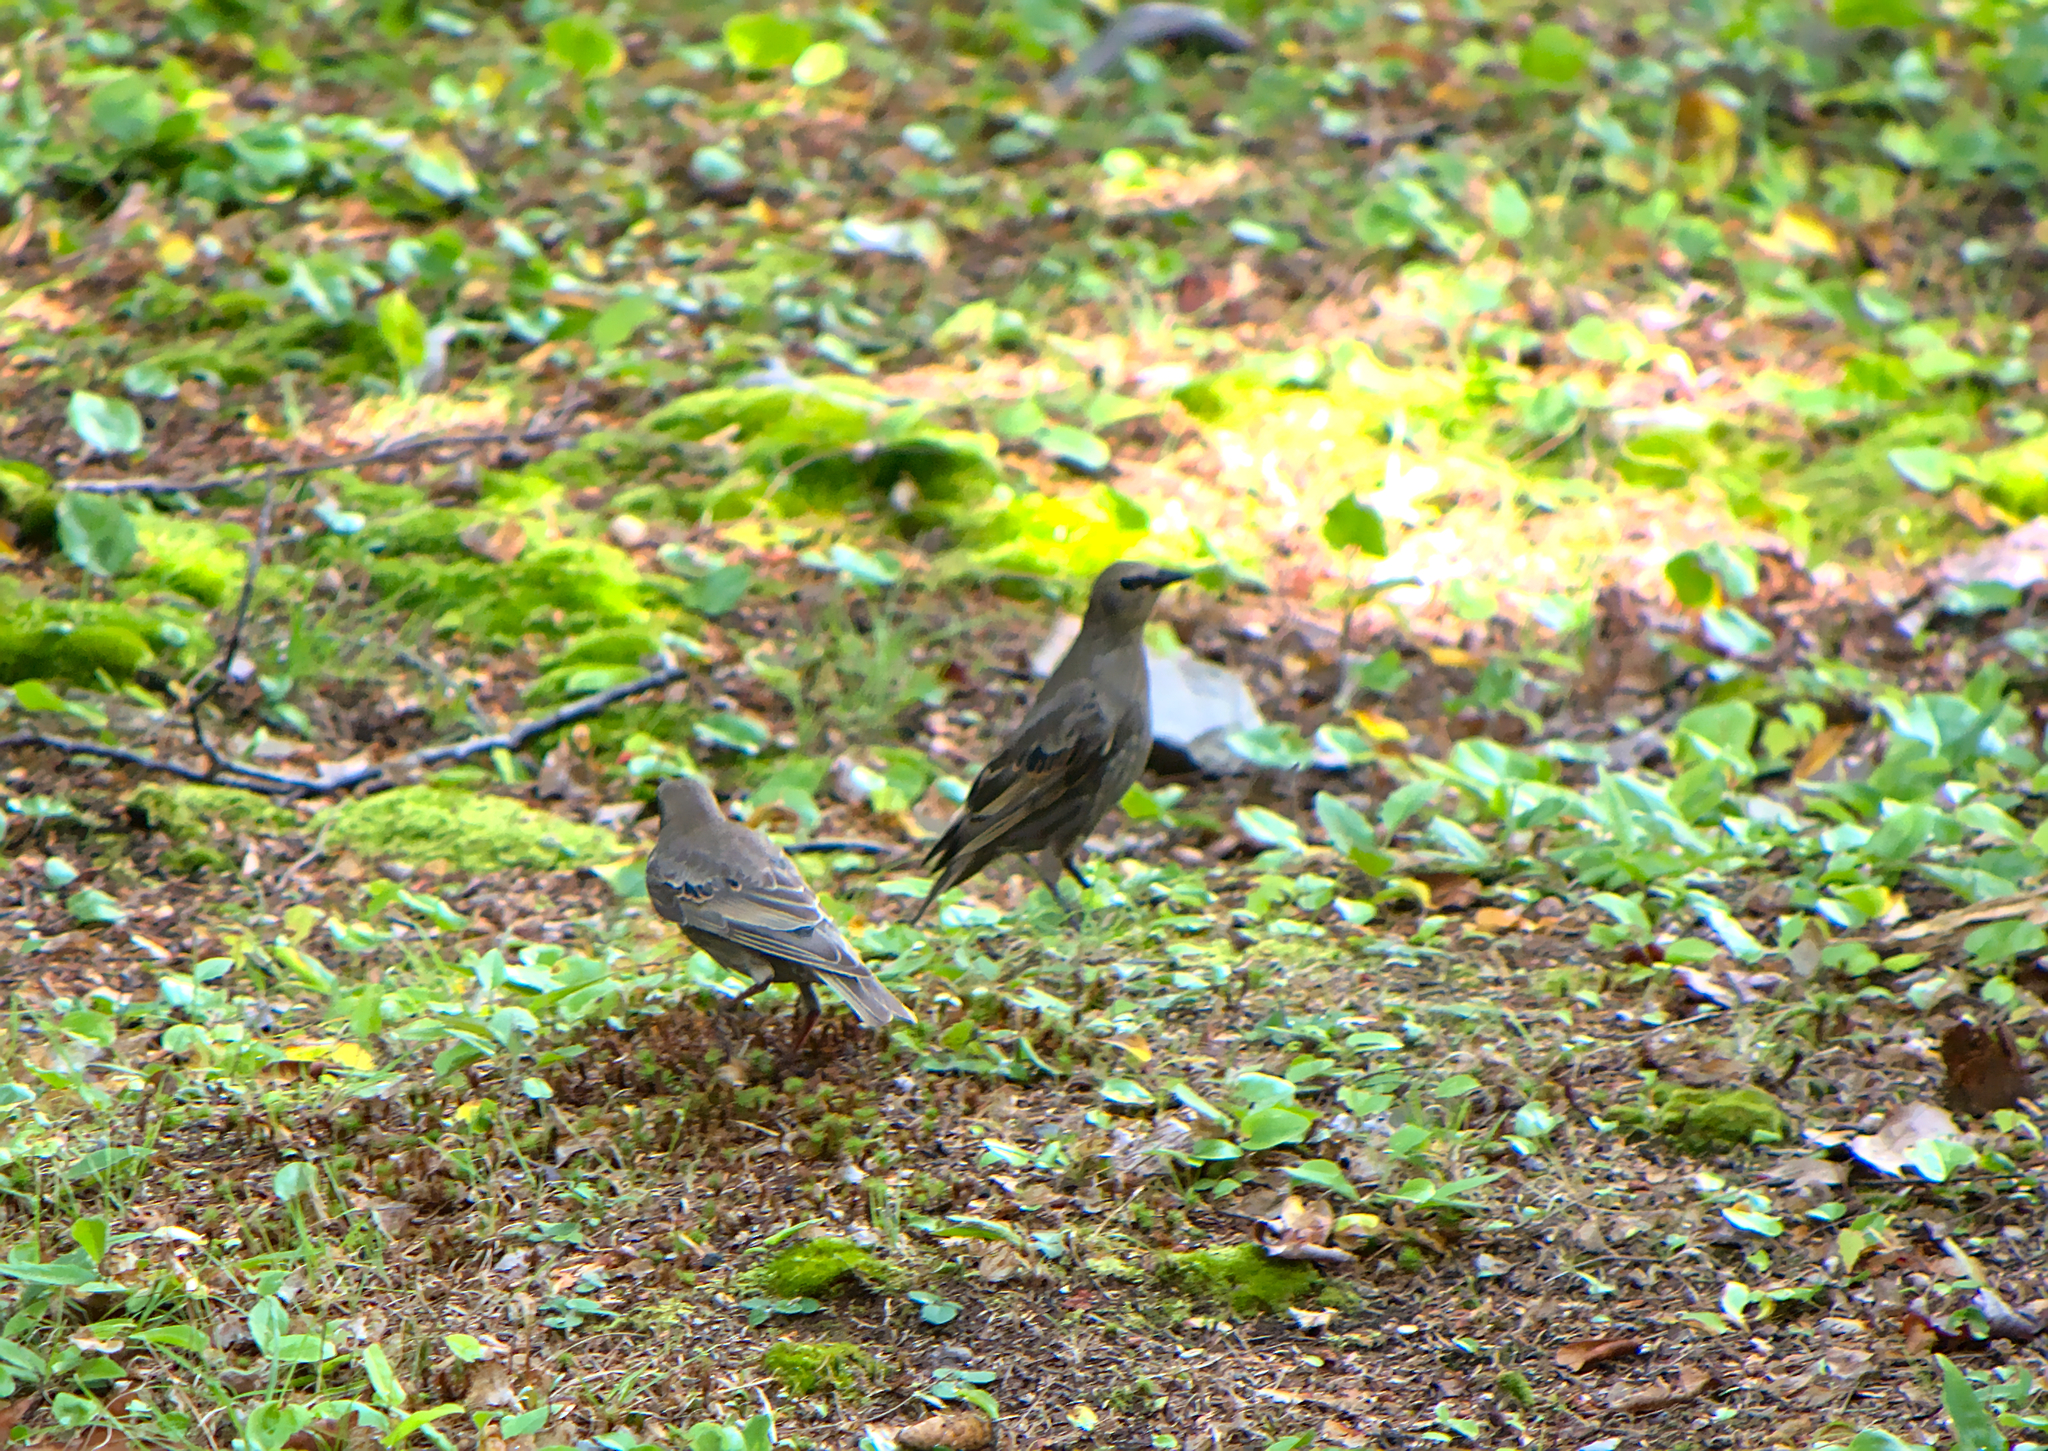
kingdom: Animalia
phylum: Chordata
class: Aves
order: Passeriformes
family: Sturnidae
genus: Sturnus
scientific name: Sturnus vulgaris
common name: Common starling
